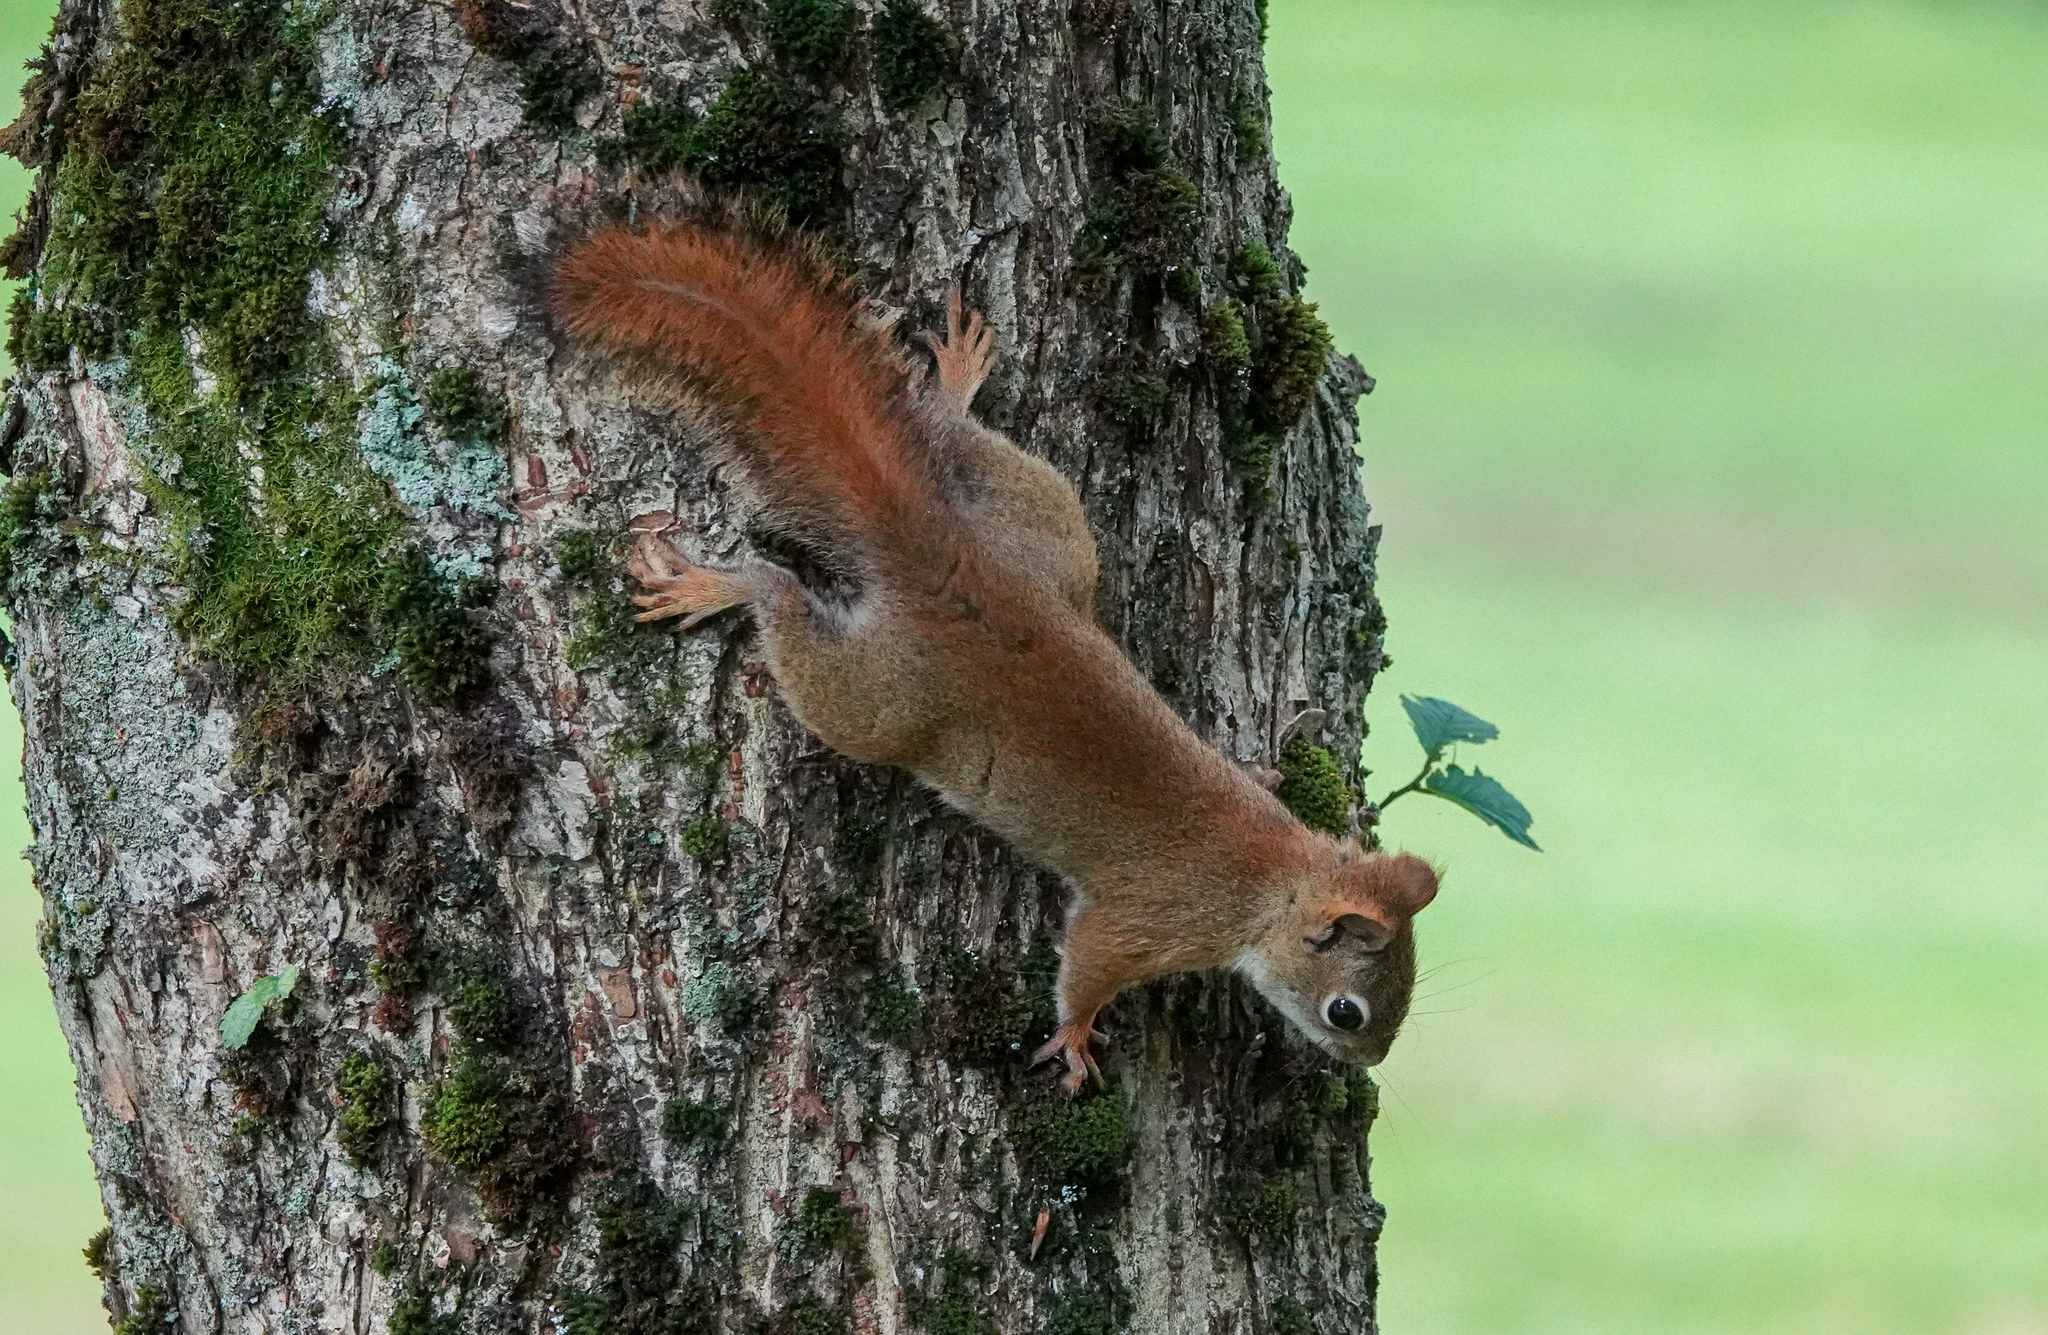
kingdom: Animalia
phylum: Chordata
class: Mammalia
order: Rodentia
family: Sciuridae
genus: Tamiasciurus
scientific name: Tamiasciurus hudsonicus
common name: Red squirrel
